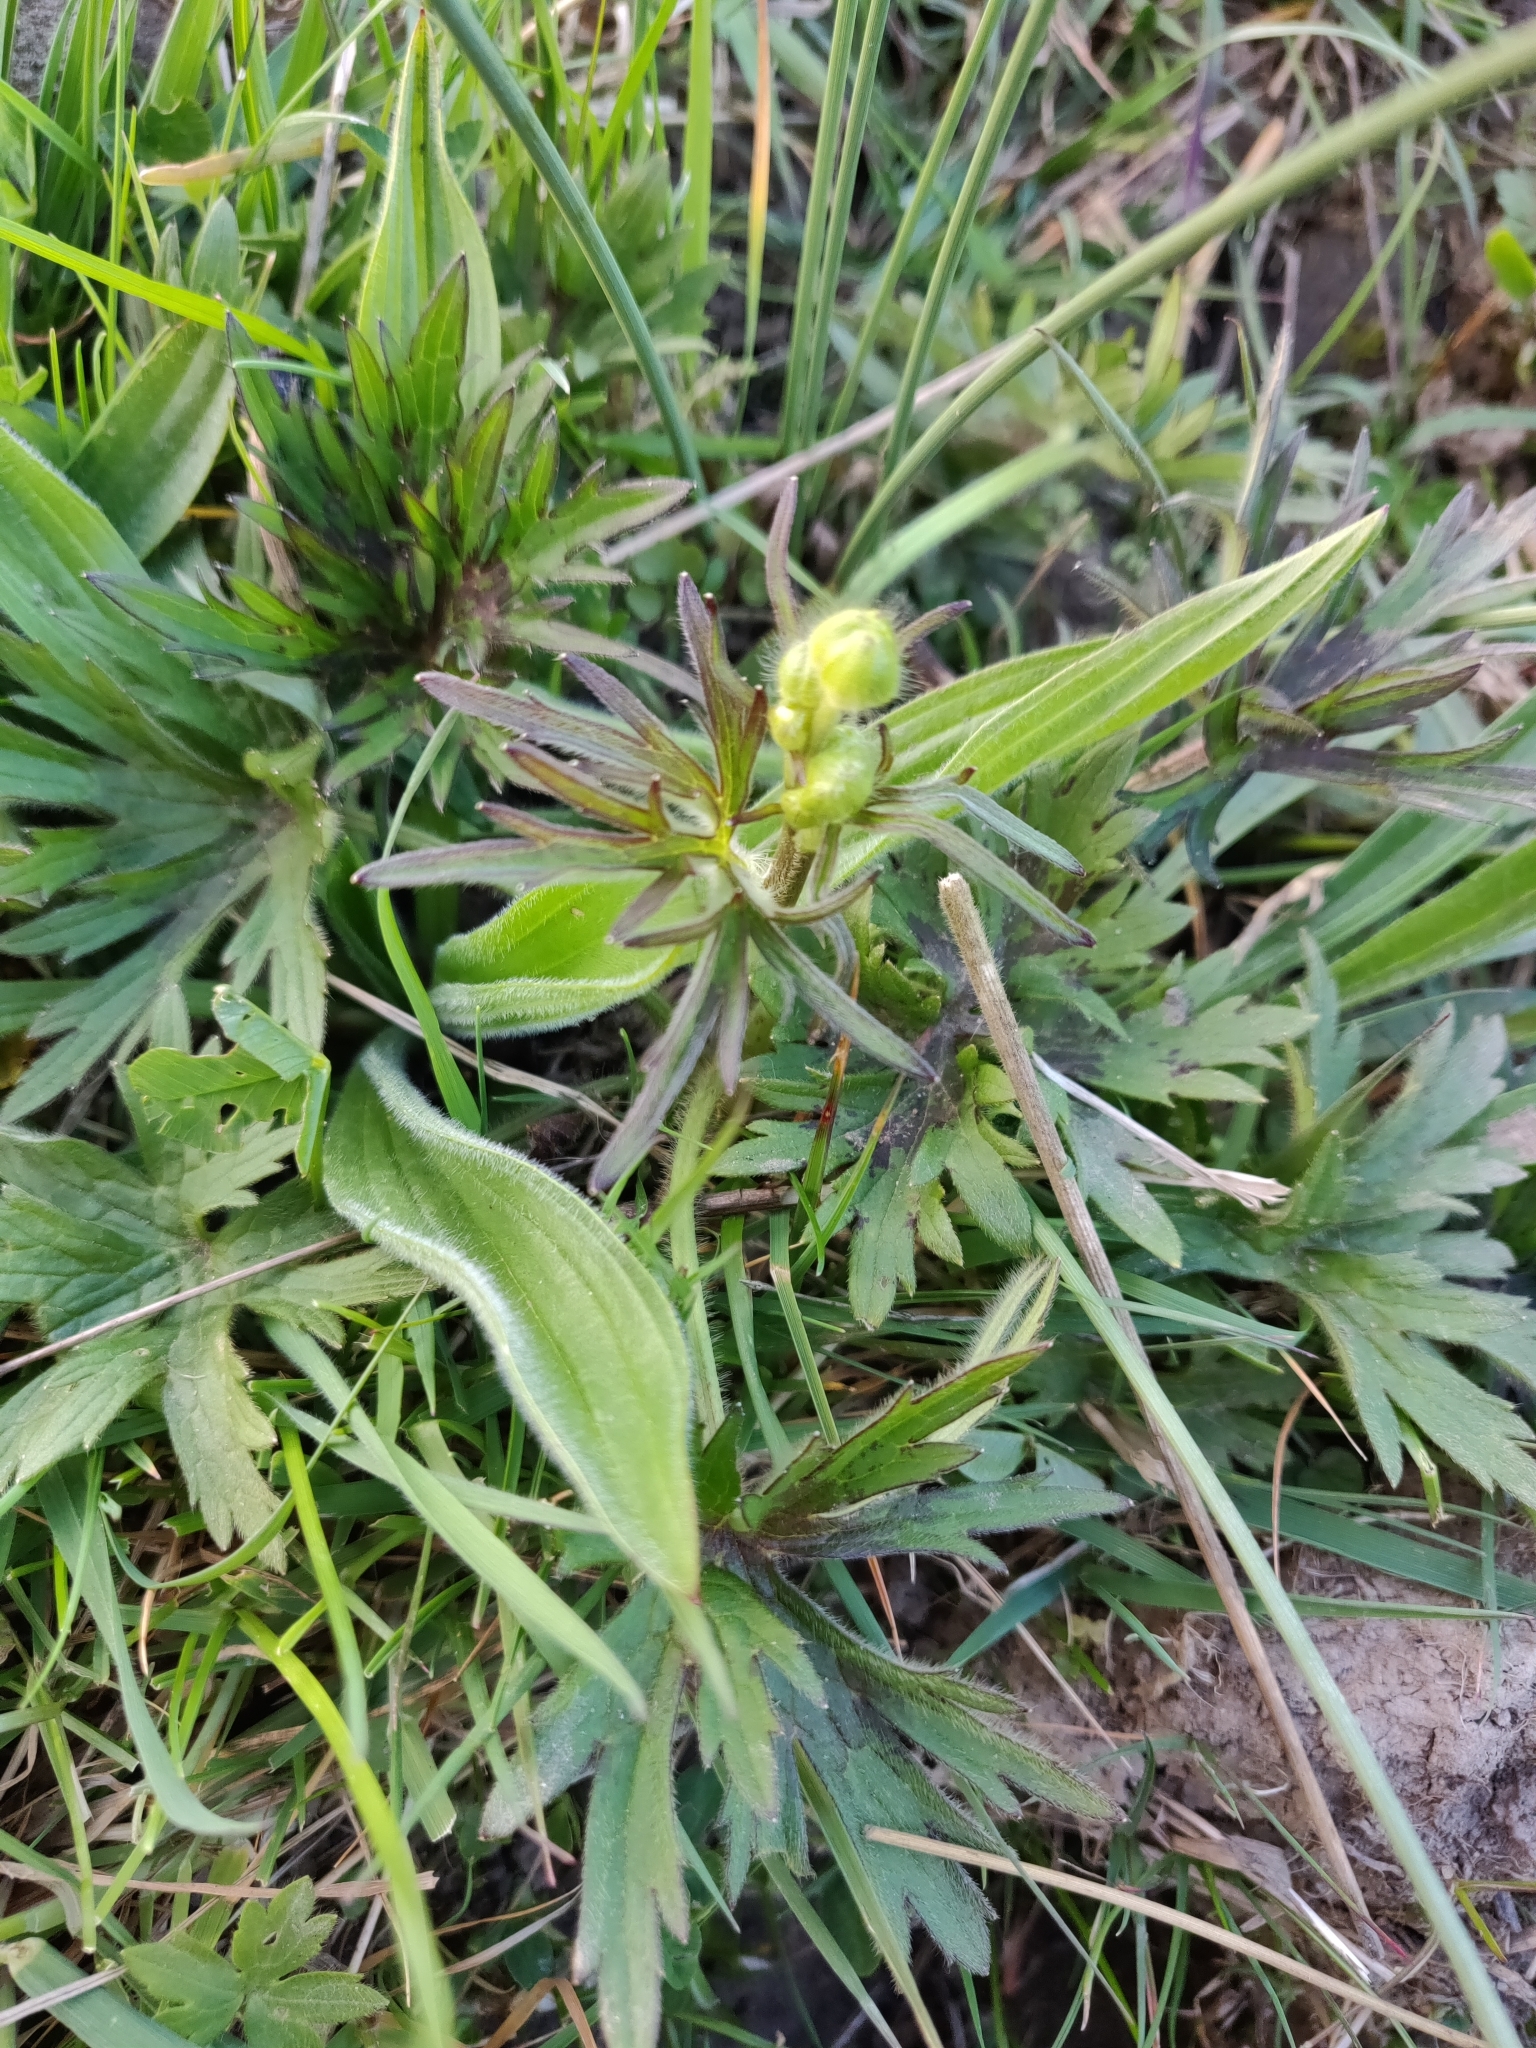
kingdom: Plantae
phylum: Tracheophyta
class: Magnoliopsida
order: Ranunculales
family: Ranunculaceae
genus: Ranunculus
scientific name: Ranunculus acris
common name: Meadow buttercup
